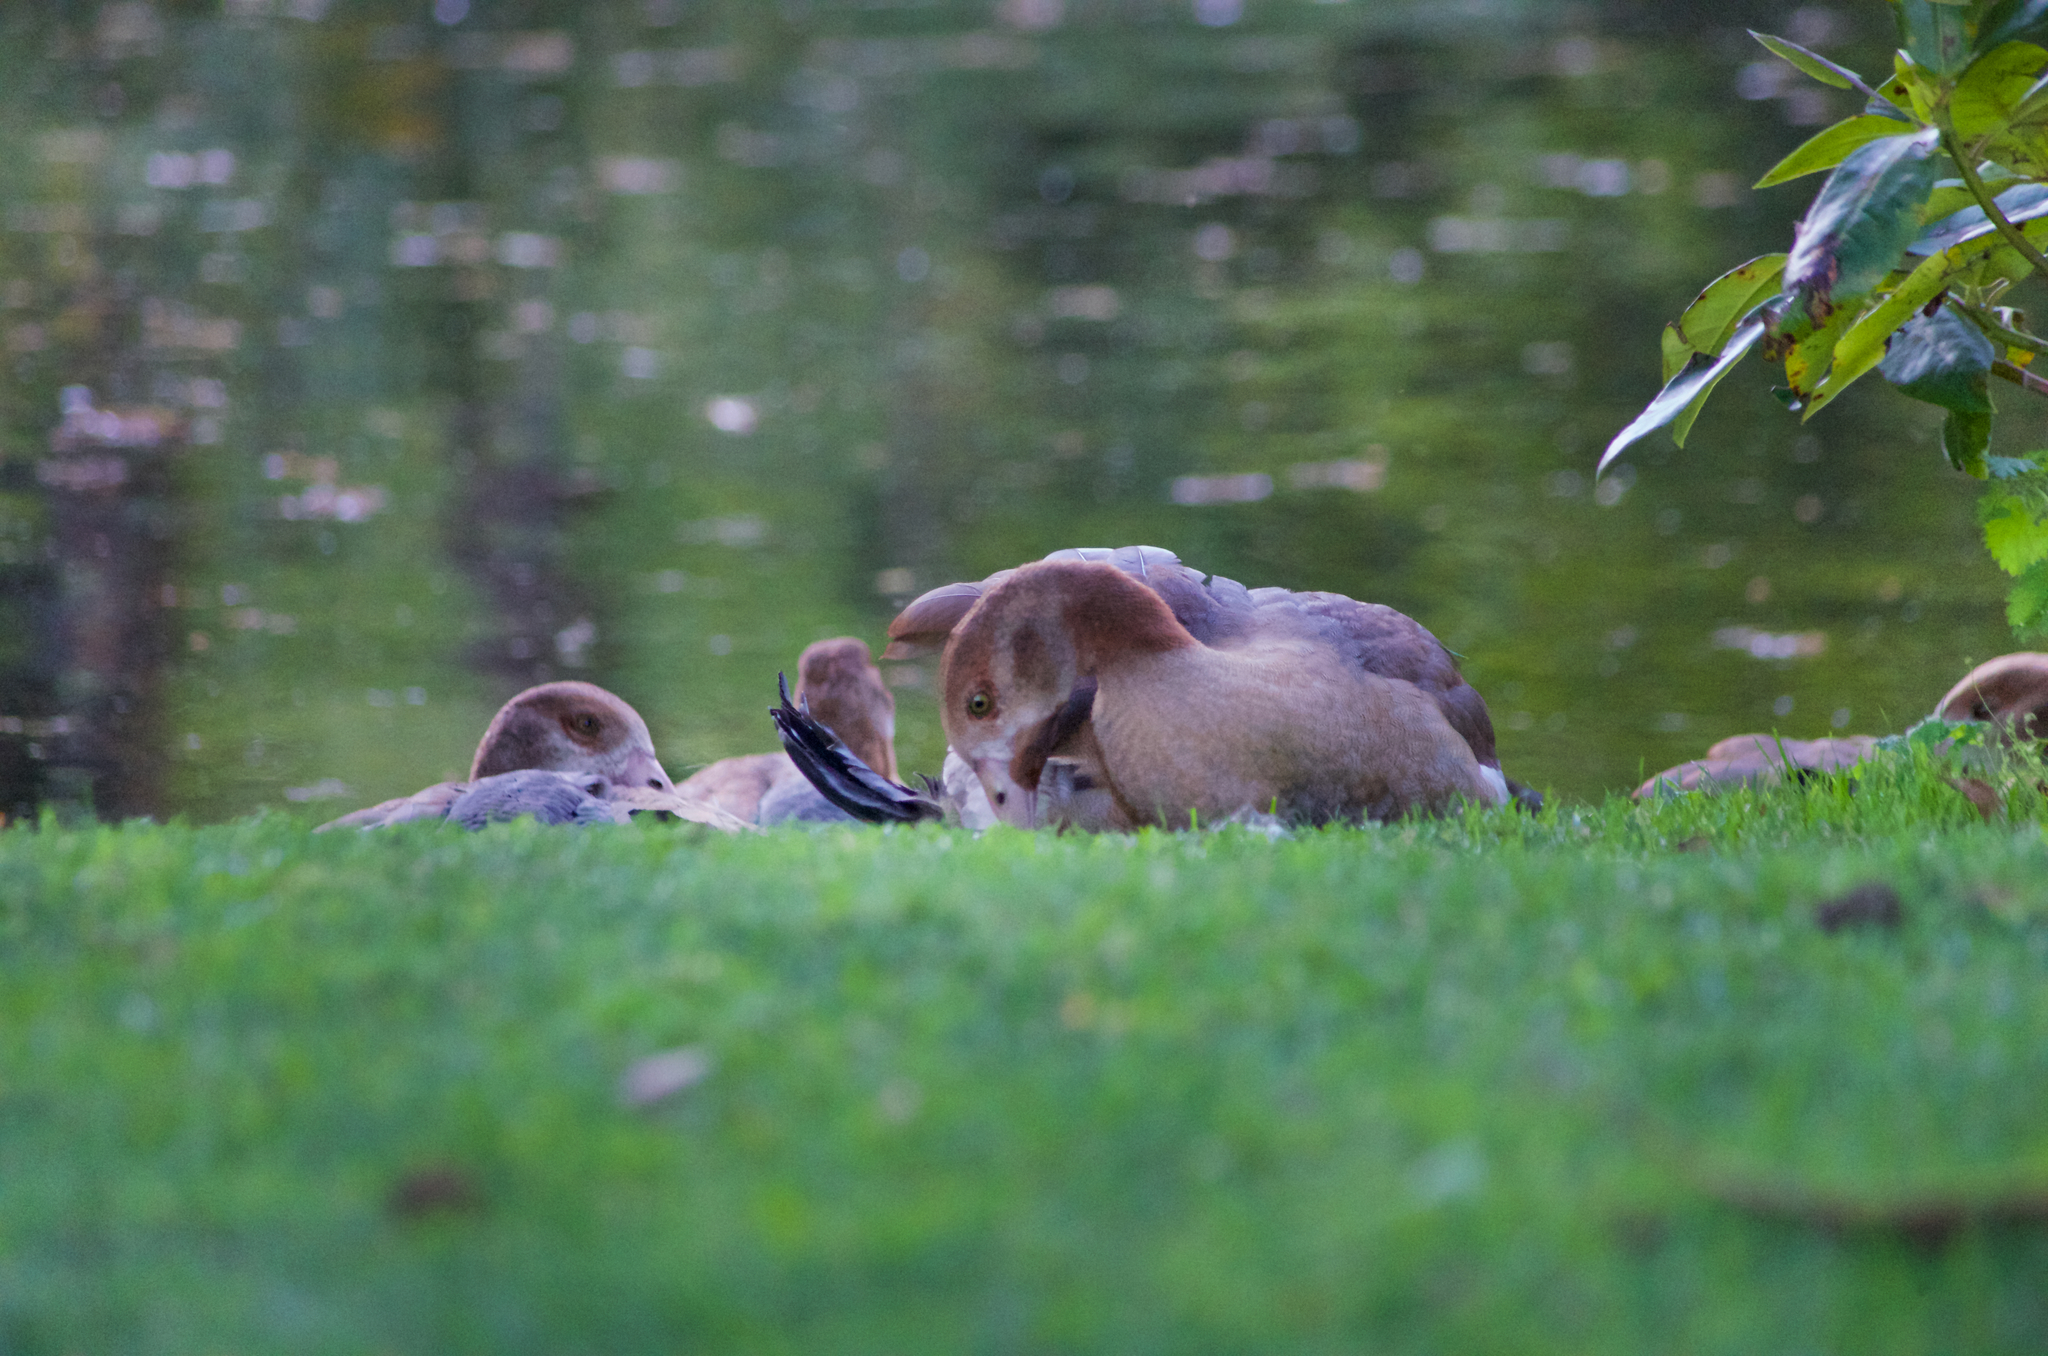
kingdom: Animalia
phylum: Chordata
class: Aves
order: Anseriformes
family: Anatidae
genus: Alopochen
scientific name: Alopochen aegyptiaca
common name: Egyptian goose
